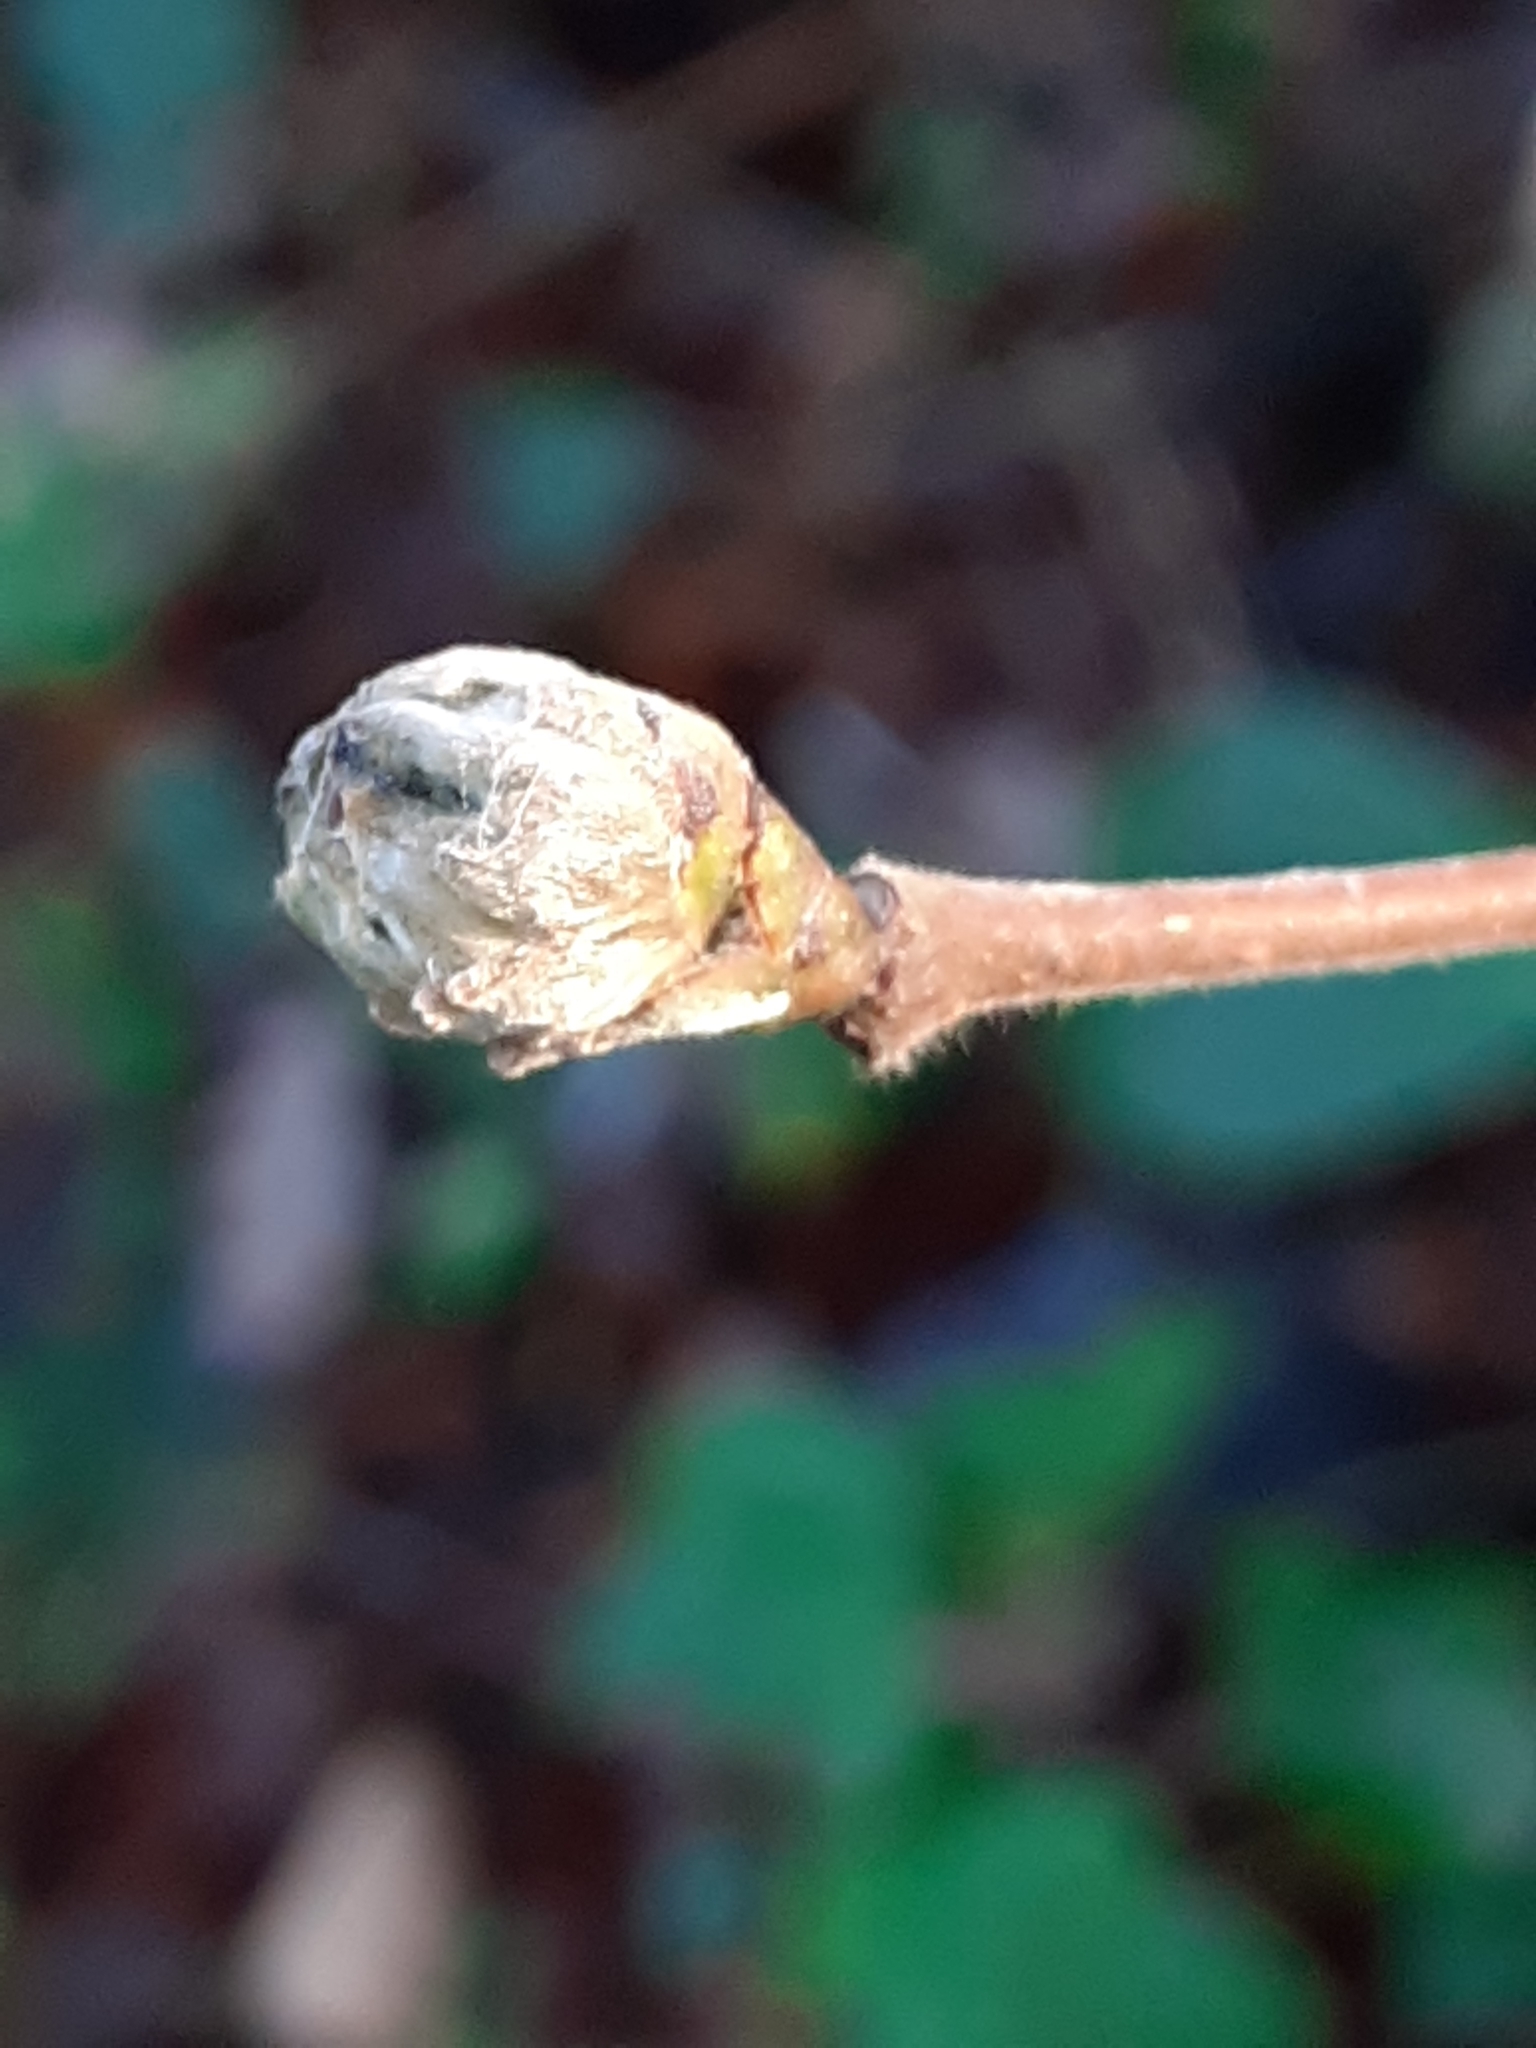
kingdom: Animalia
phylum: Arthropoda
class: Arachnida
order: Trombidiformes
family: Phytoptidae
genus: Phytoptus
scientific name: Phytoptus avellanae
